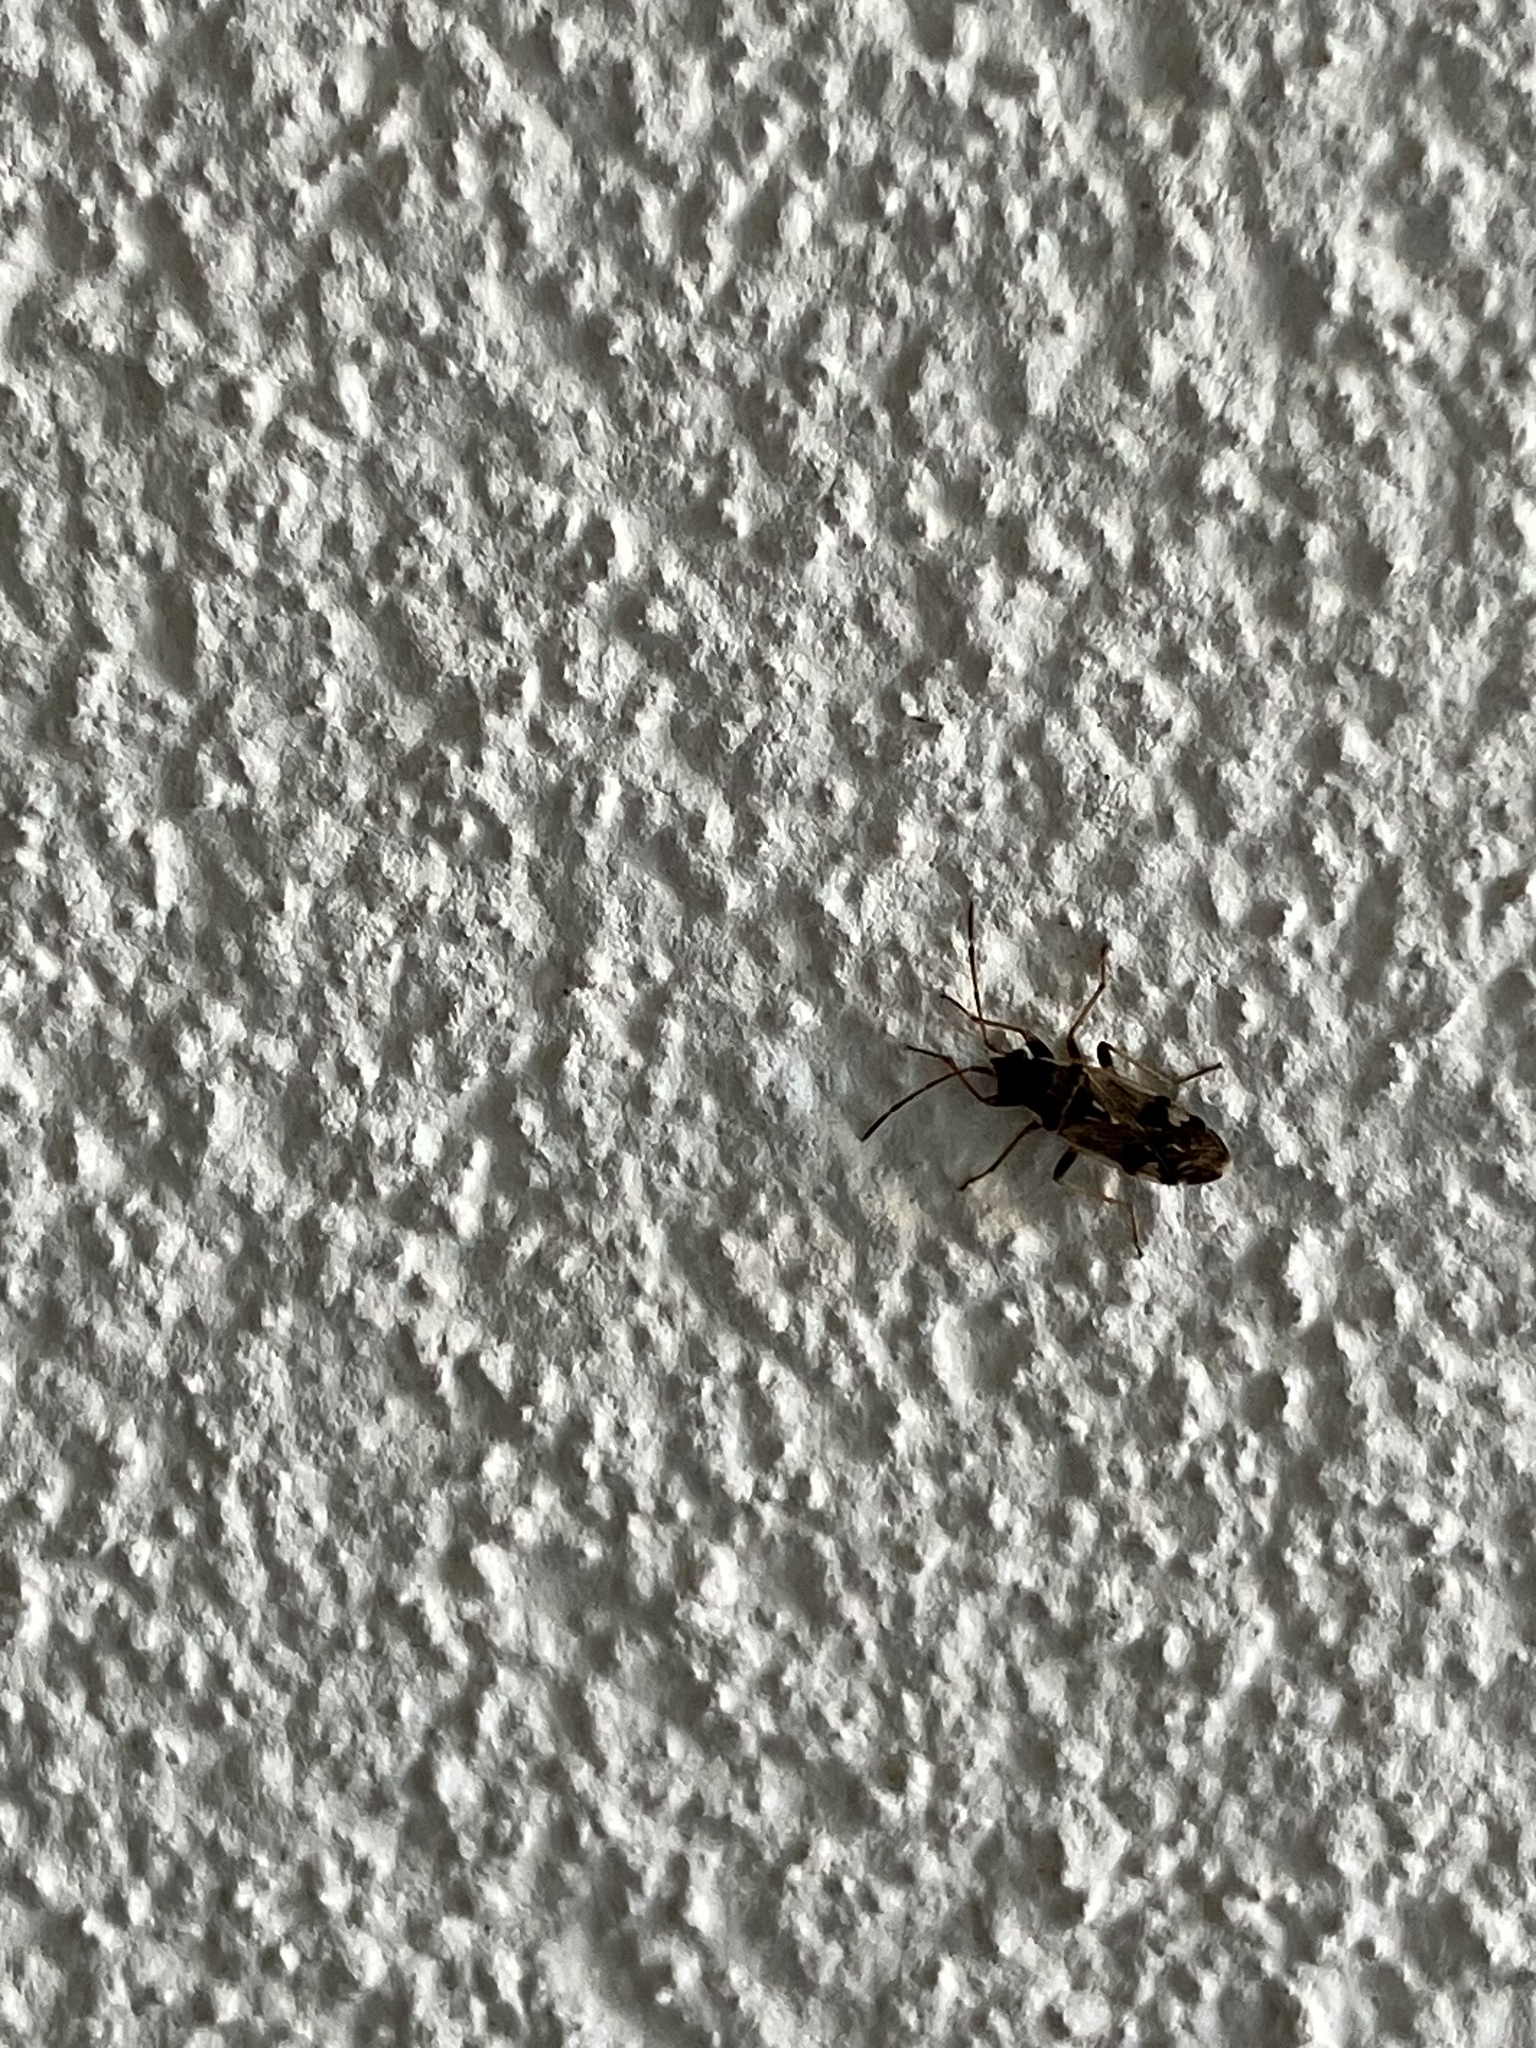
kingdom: Animalia
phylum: Arthropoda
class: Insecta
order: Hemiptera
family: Rhyparochromidae
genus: Beosus
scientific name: Beosus maritimus
